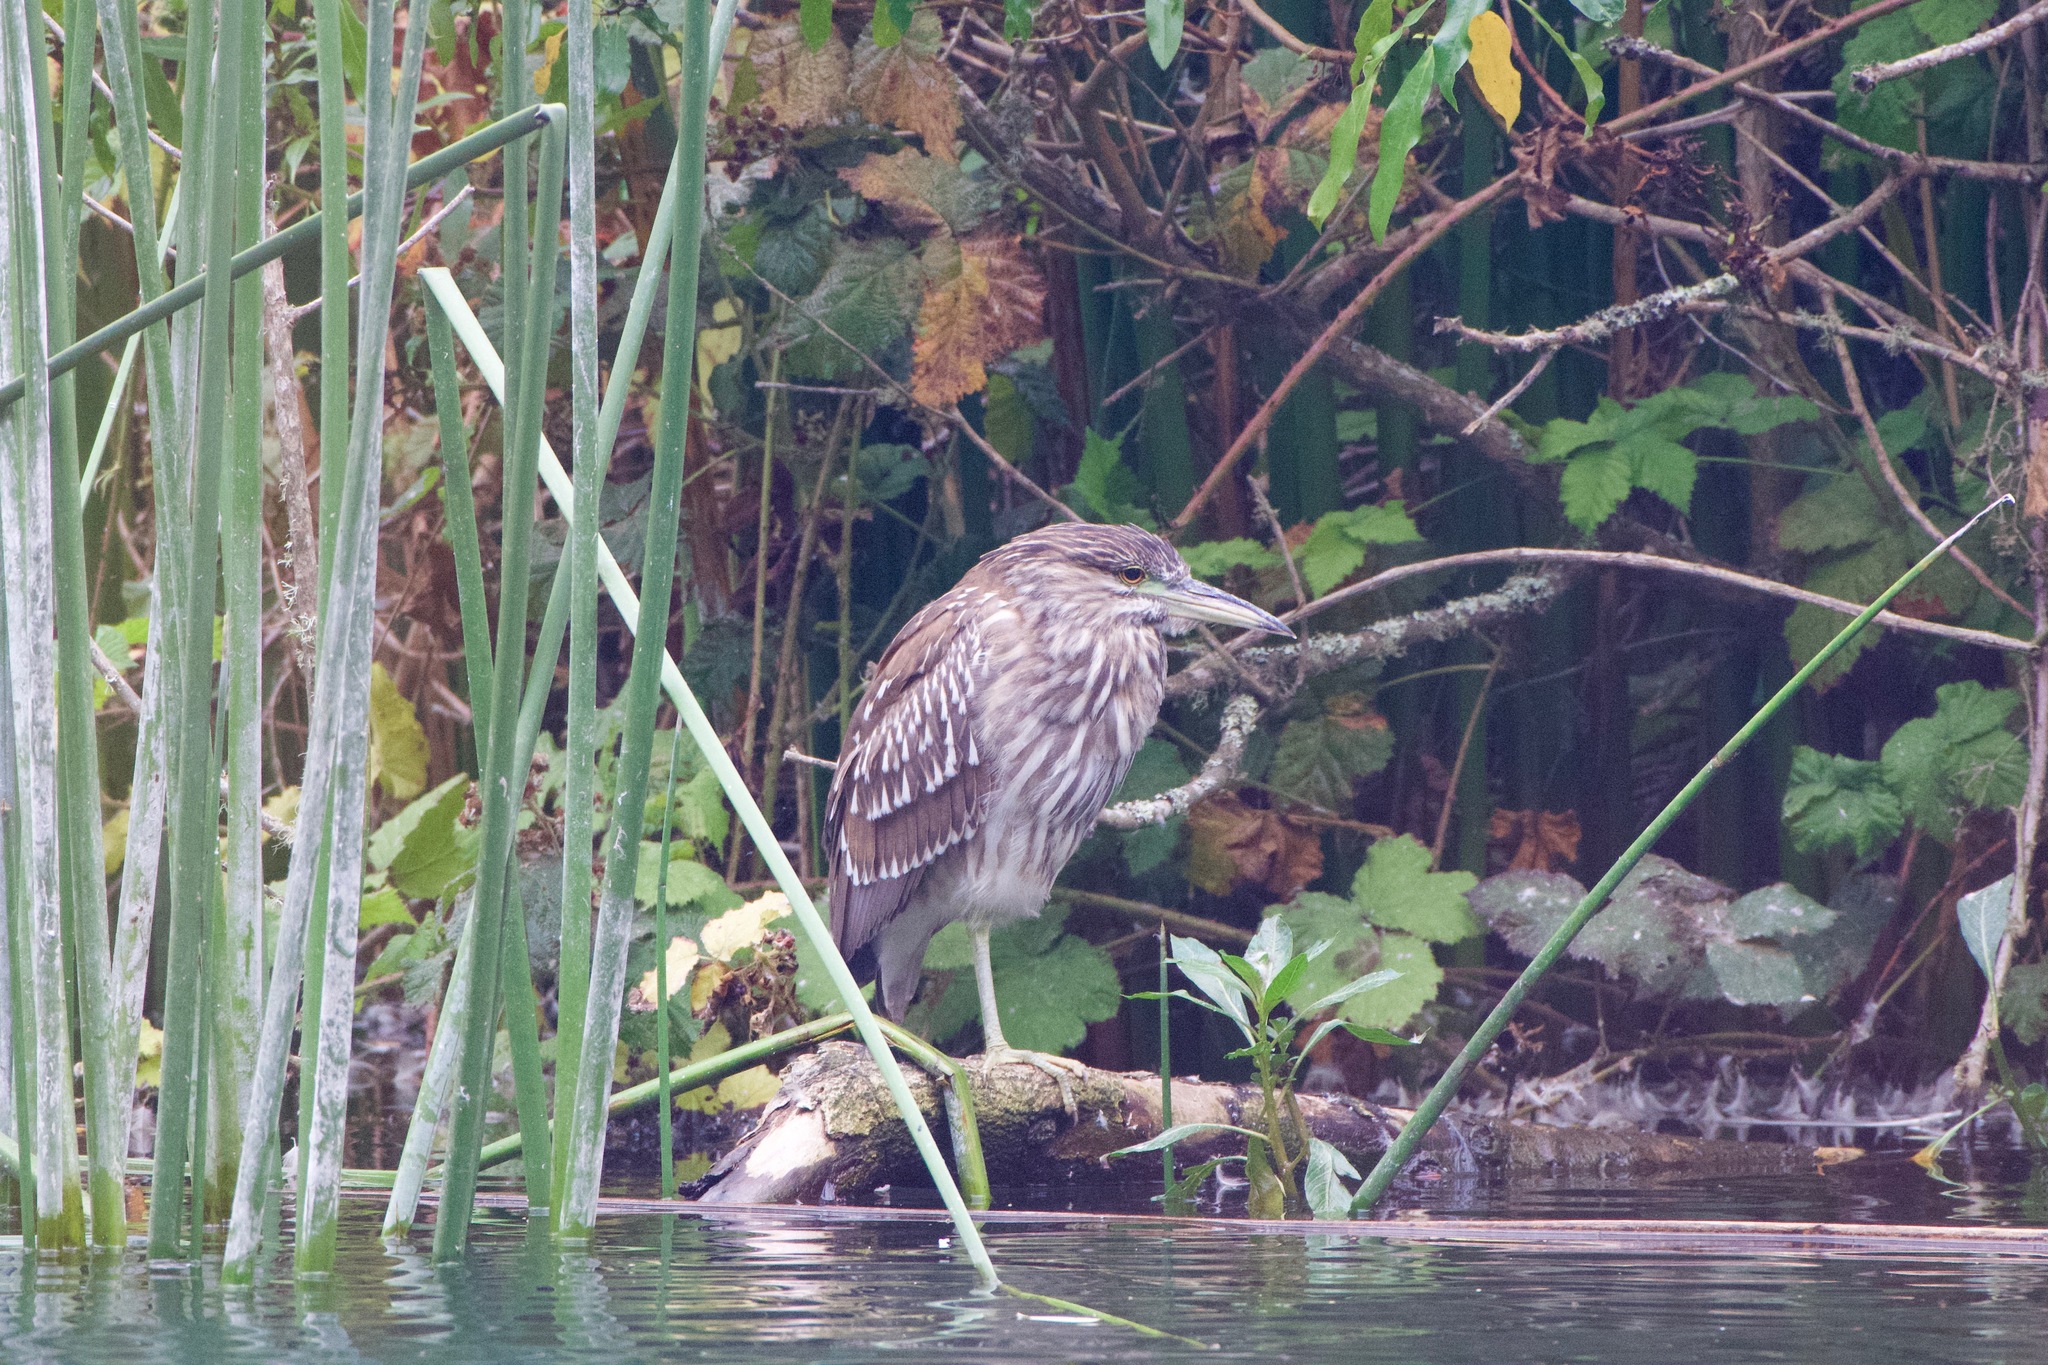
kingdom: Animalia
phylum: Chordata
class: Aves
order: Pelecaniformes
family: Ardeidae
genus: Nycticorax
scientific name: Nycticorax nycticorax
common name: Black-crowned night heron
